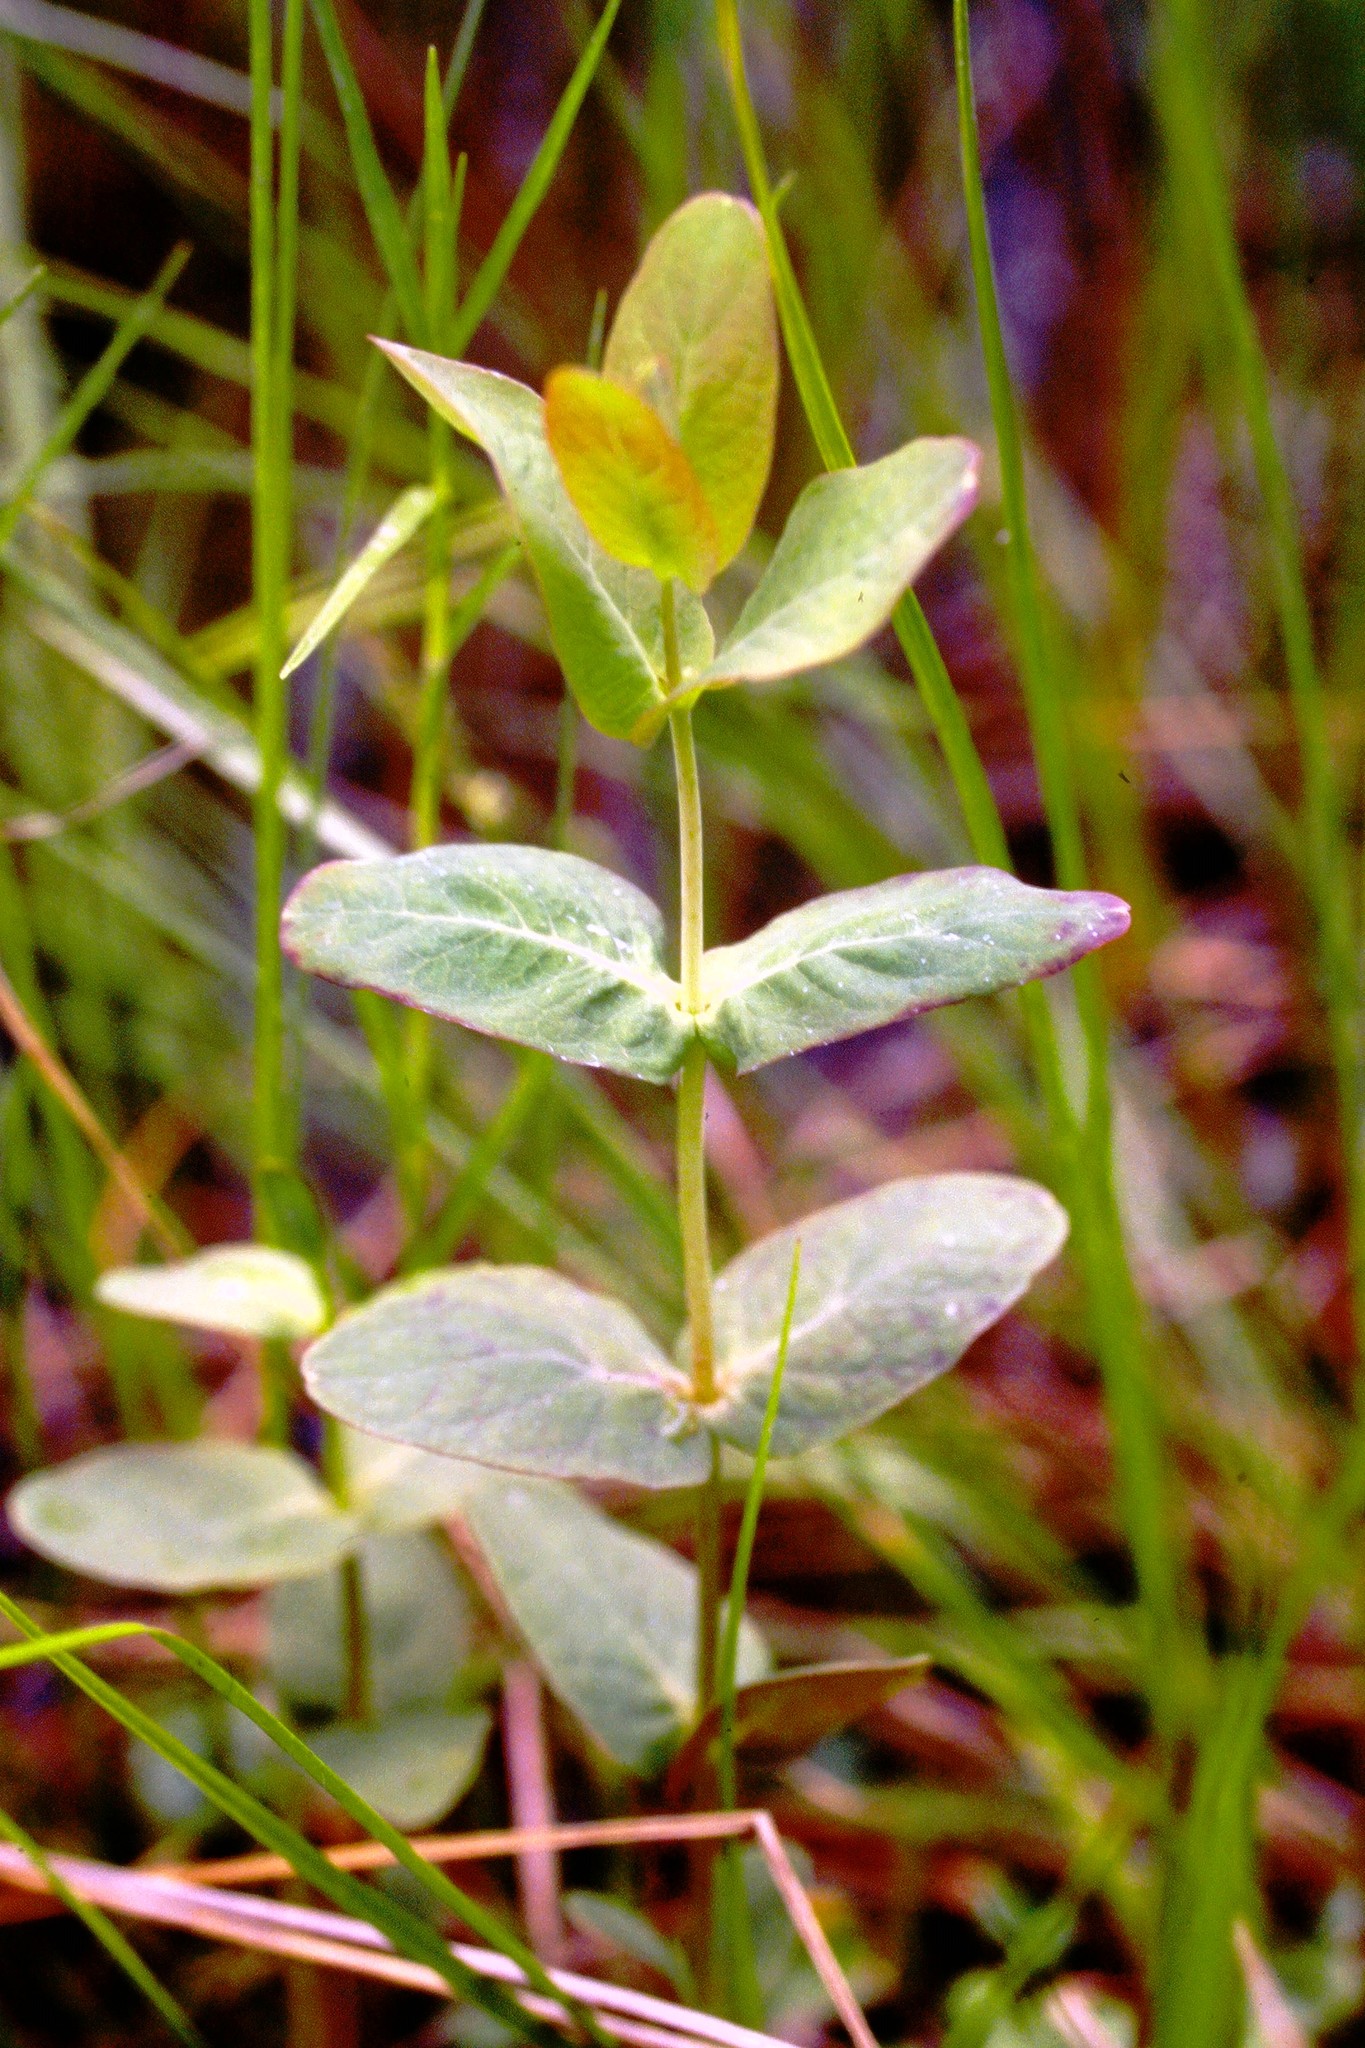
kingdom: Plantae
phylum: Tracheophyta
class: Magnoliopsida
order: Malpighiales
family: Hypericaceae
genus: Triadenum
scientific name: Triadenum fraseri
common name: Fraser's marsh st. johnswort
